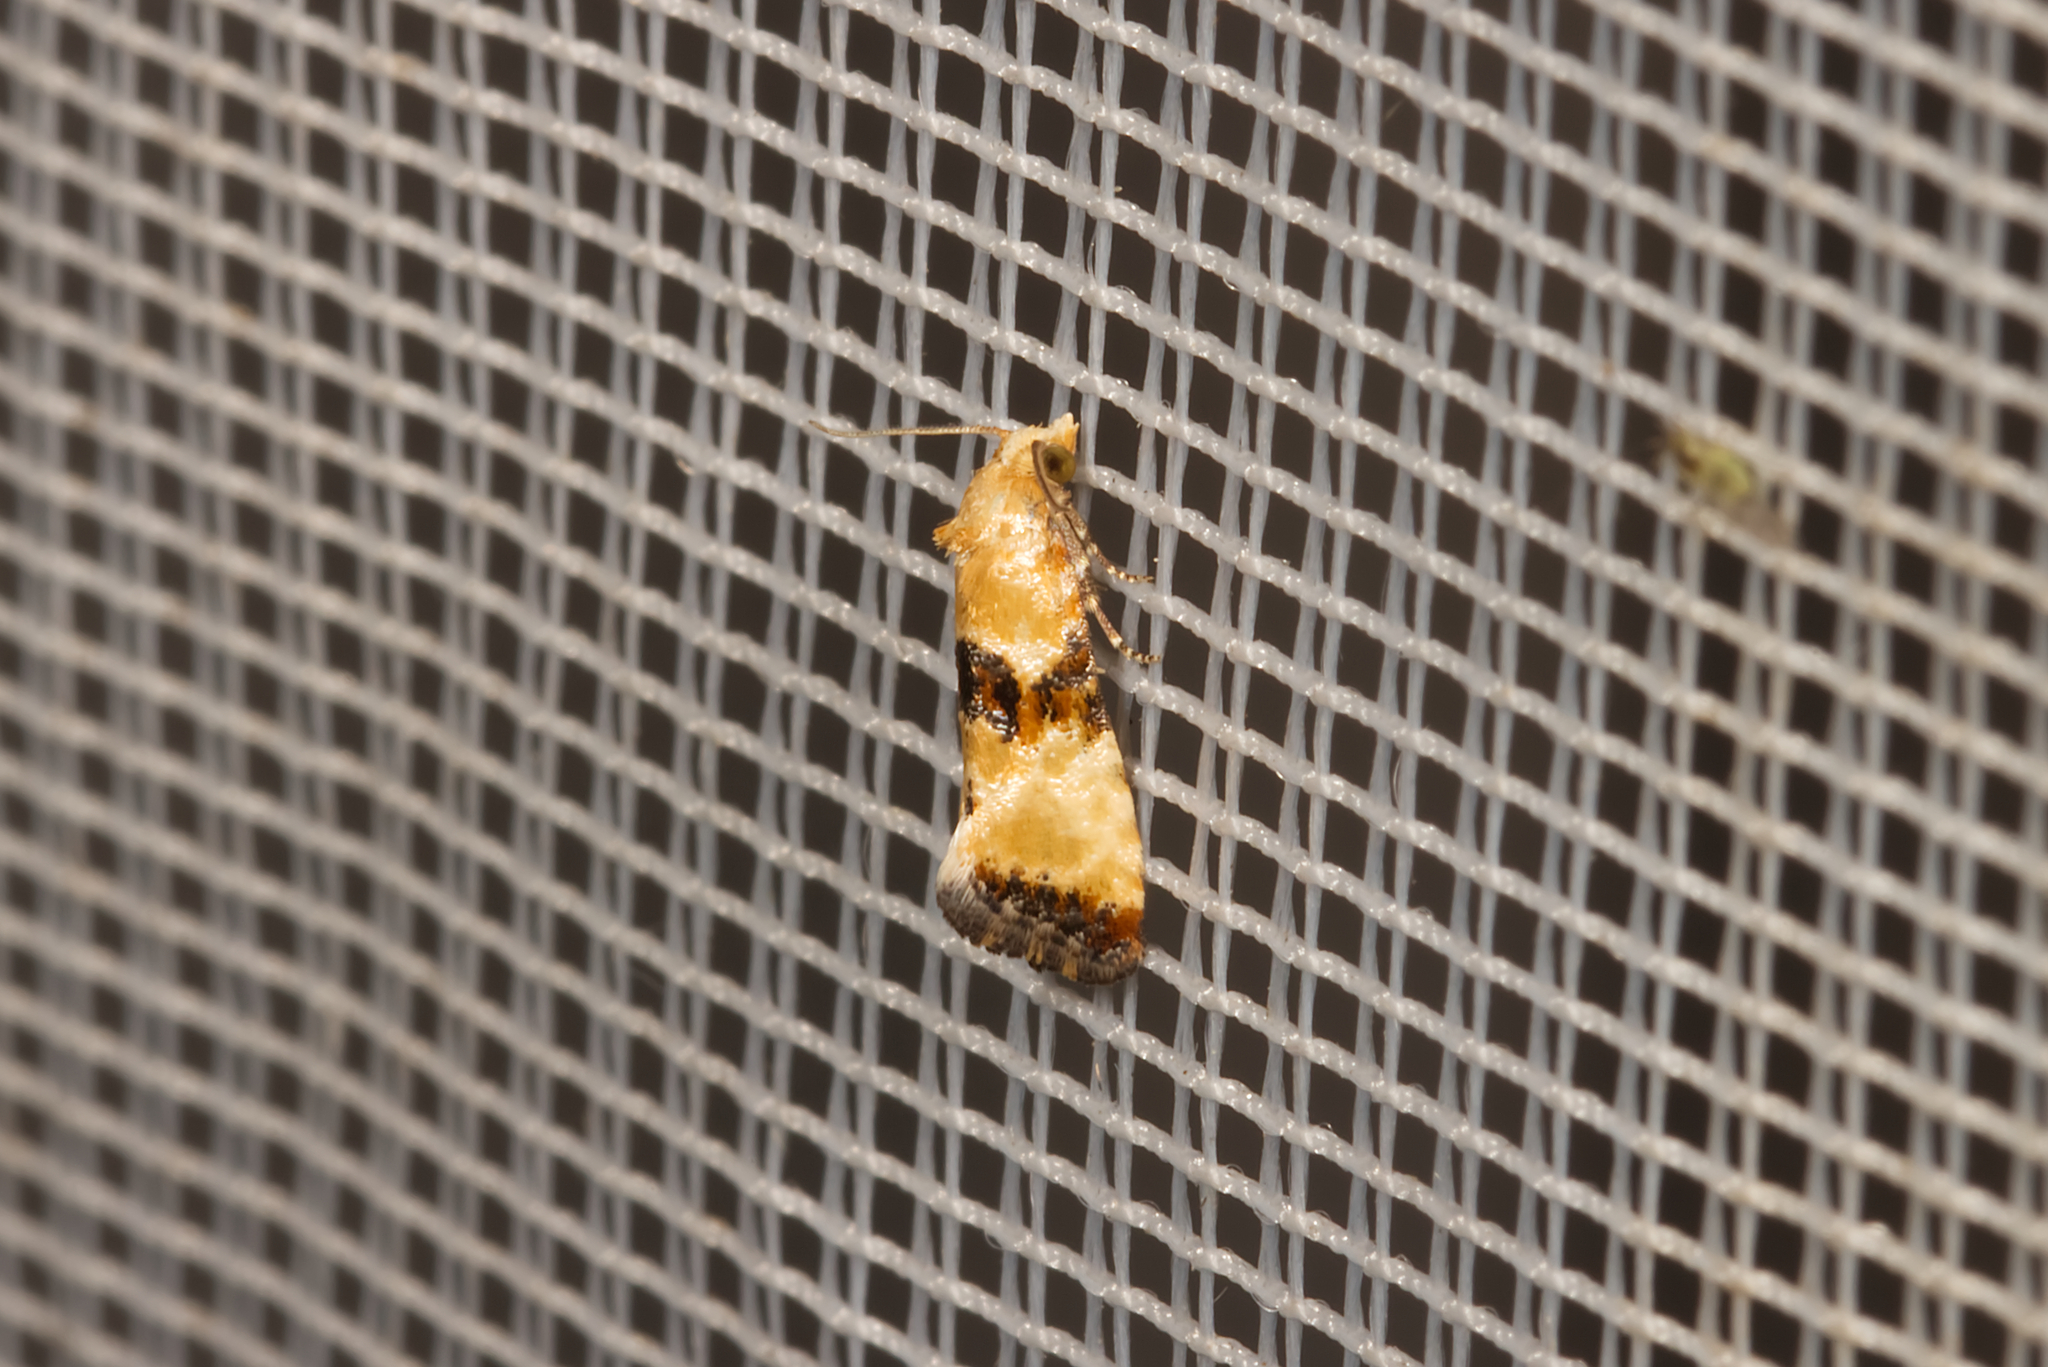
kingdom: Animalia
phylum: Arthropoda
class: Insecta
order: Lepidoptera
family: Tortricidae
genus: Eupoecilia
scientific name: Eupoecilia angustana
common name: Marbled conch
